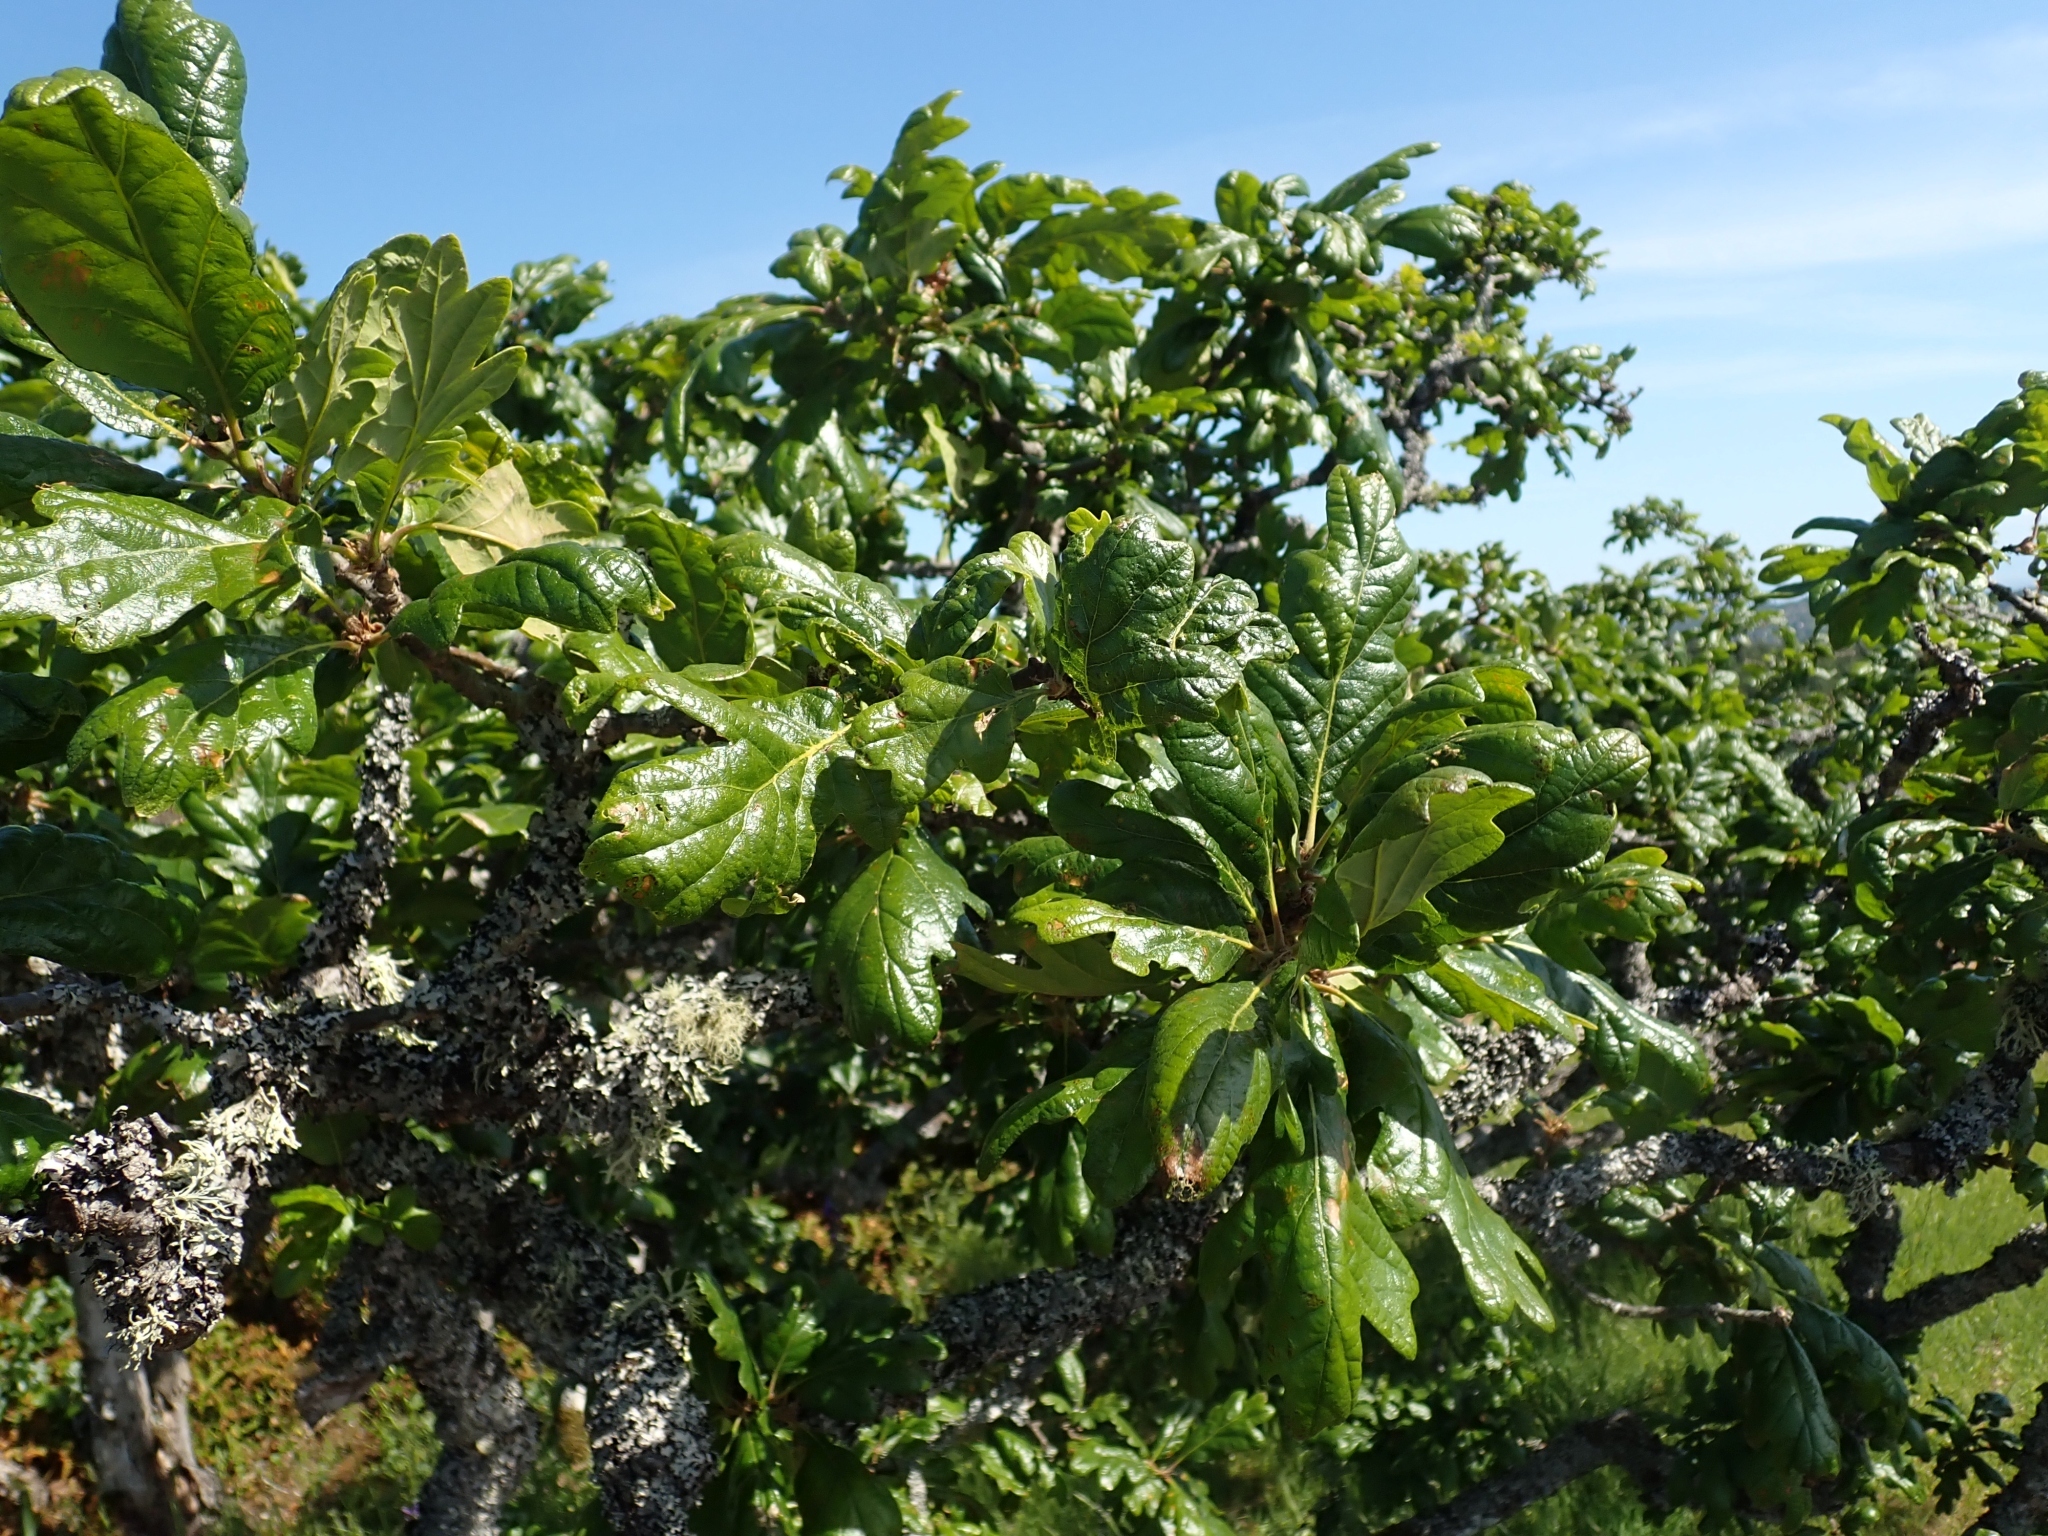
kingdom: Plantae
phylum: Tracheophyta
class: Magnoliopsida
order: Fagales
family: Fagaceae
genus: Quercus
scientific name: Quercus garryana
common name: Garry oak
